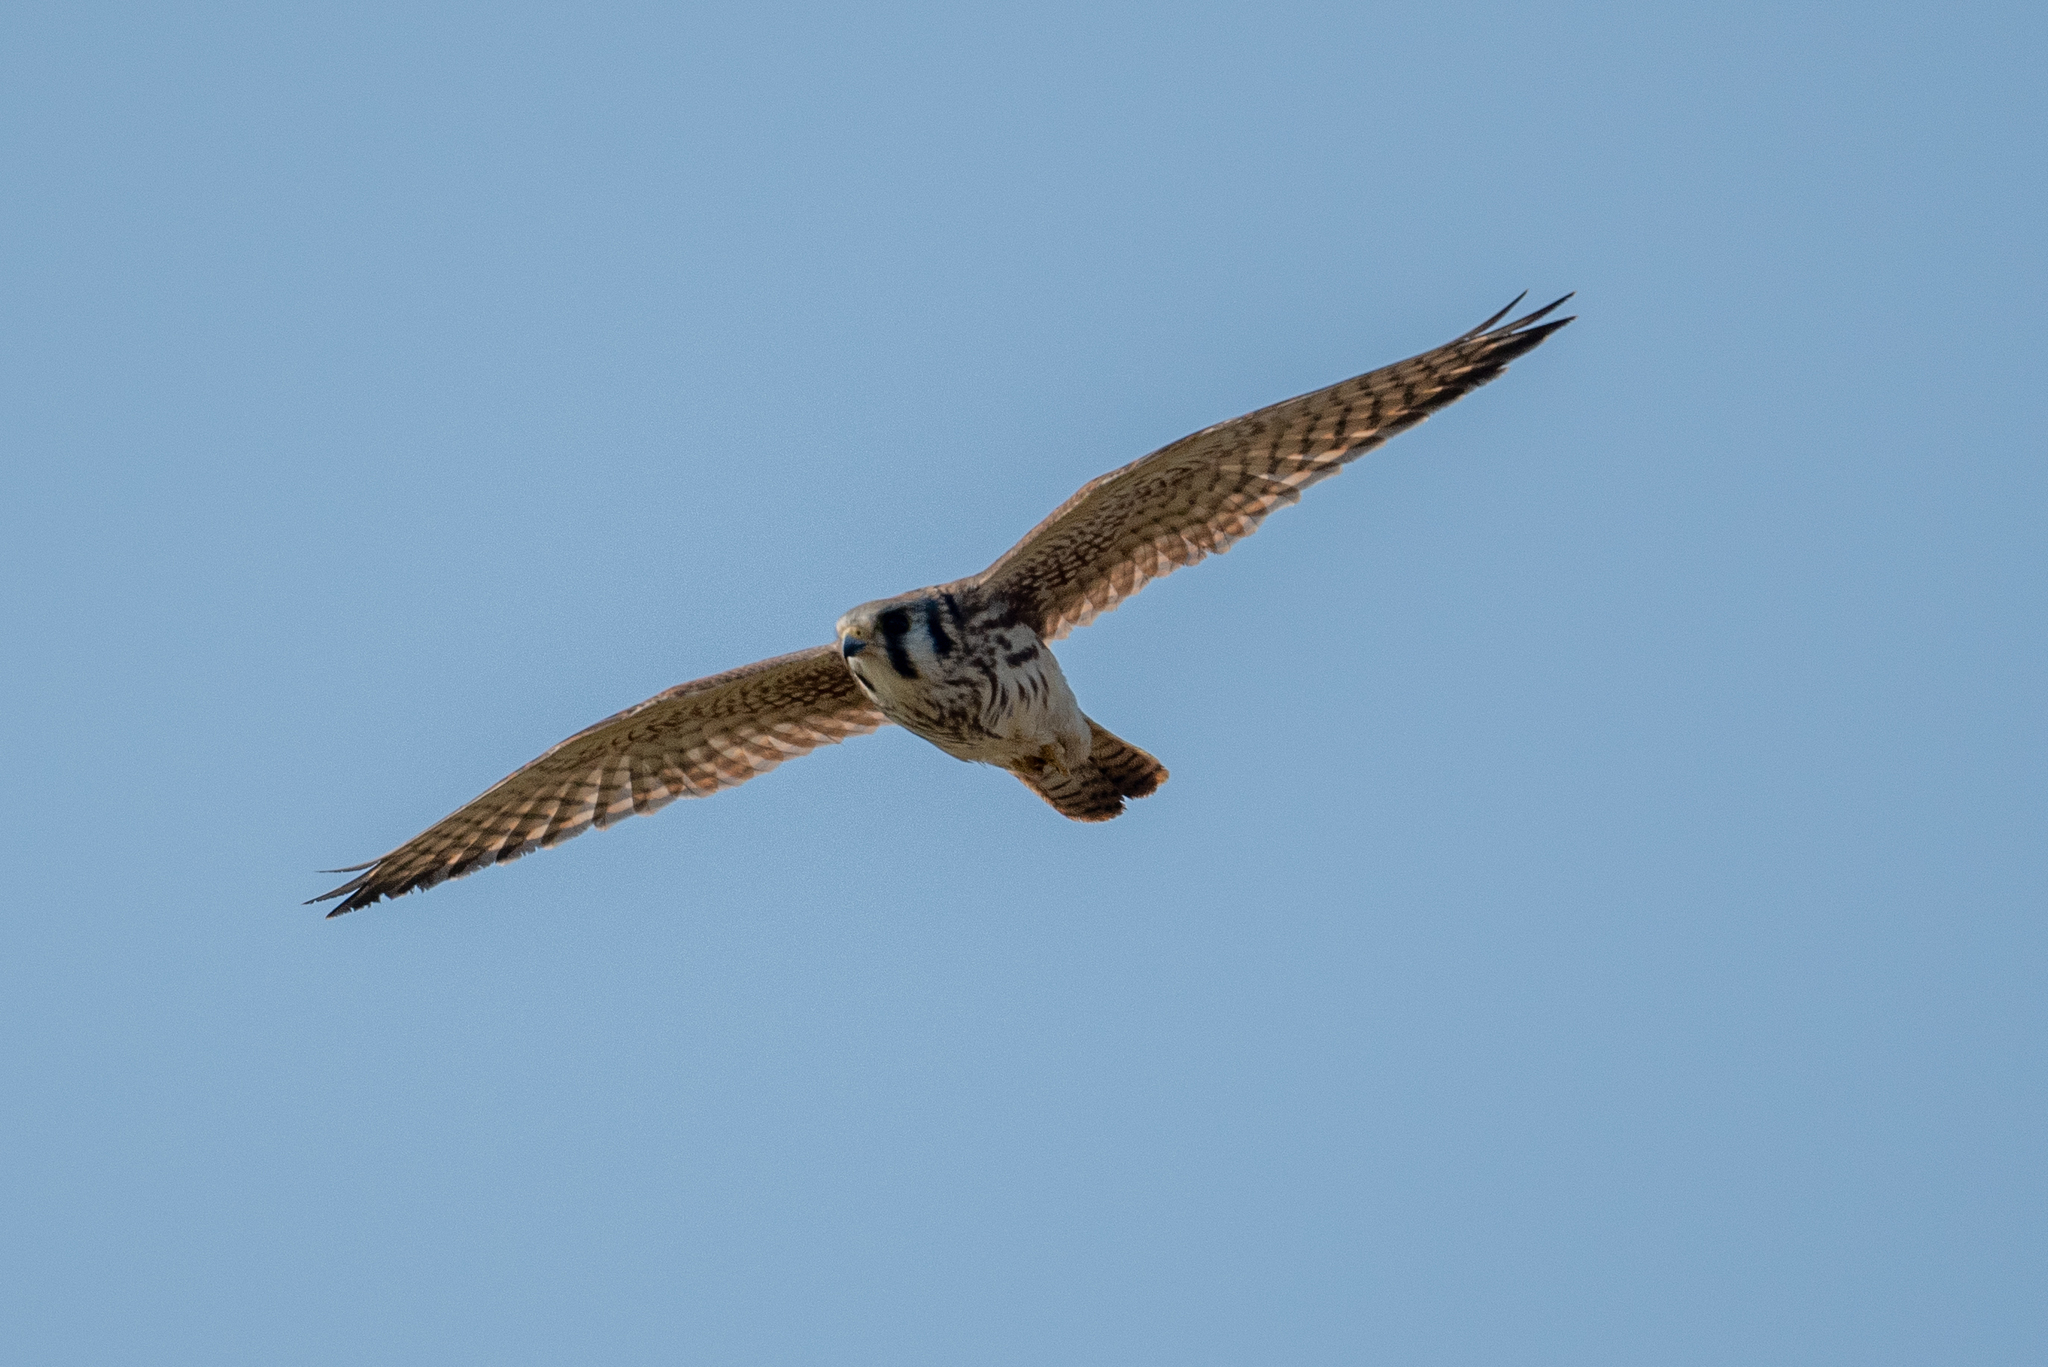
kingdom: Animalia
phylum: Chordata
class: Aves
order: Falconiformes
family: Falconidae
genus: Falco
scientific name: Falco sparverius
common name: American kestrel
